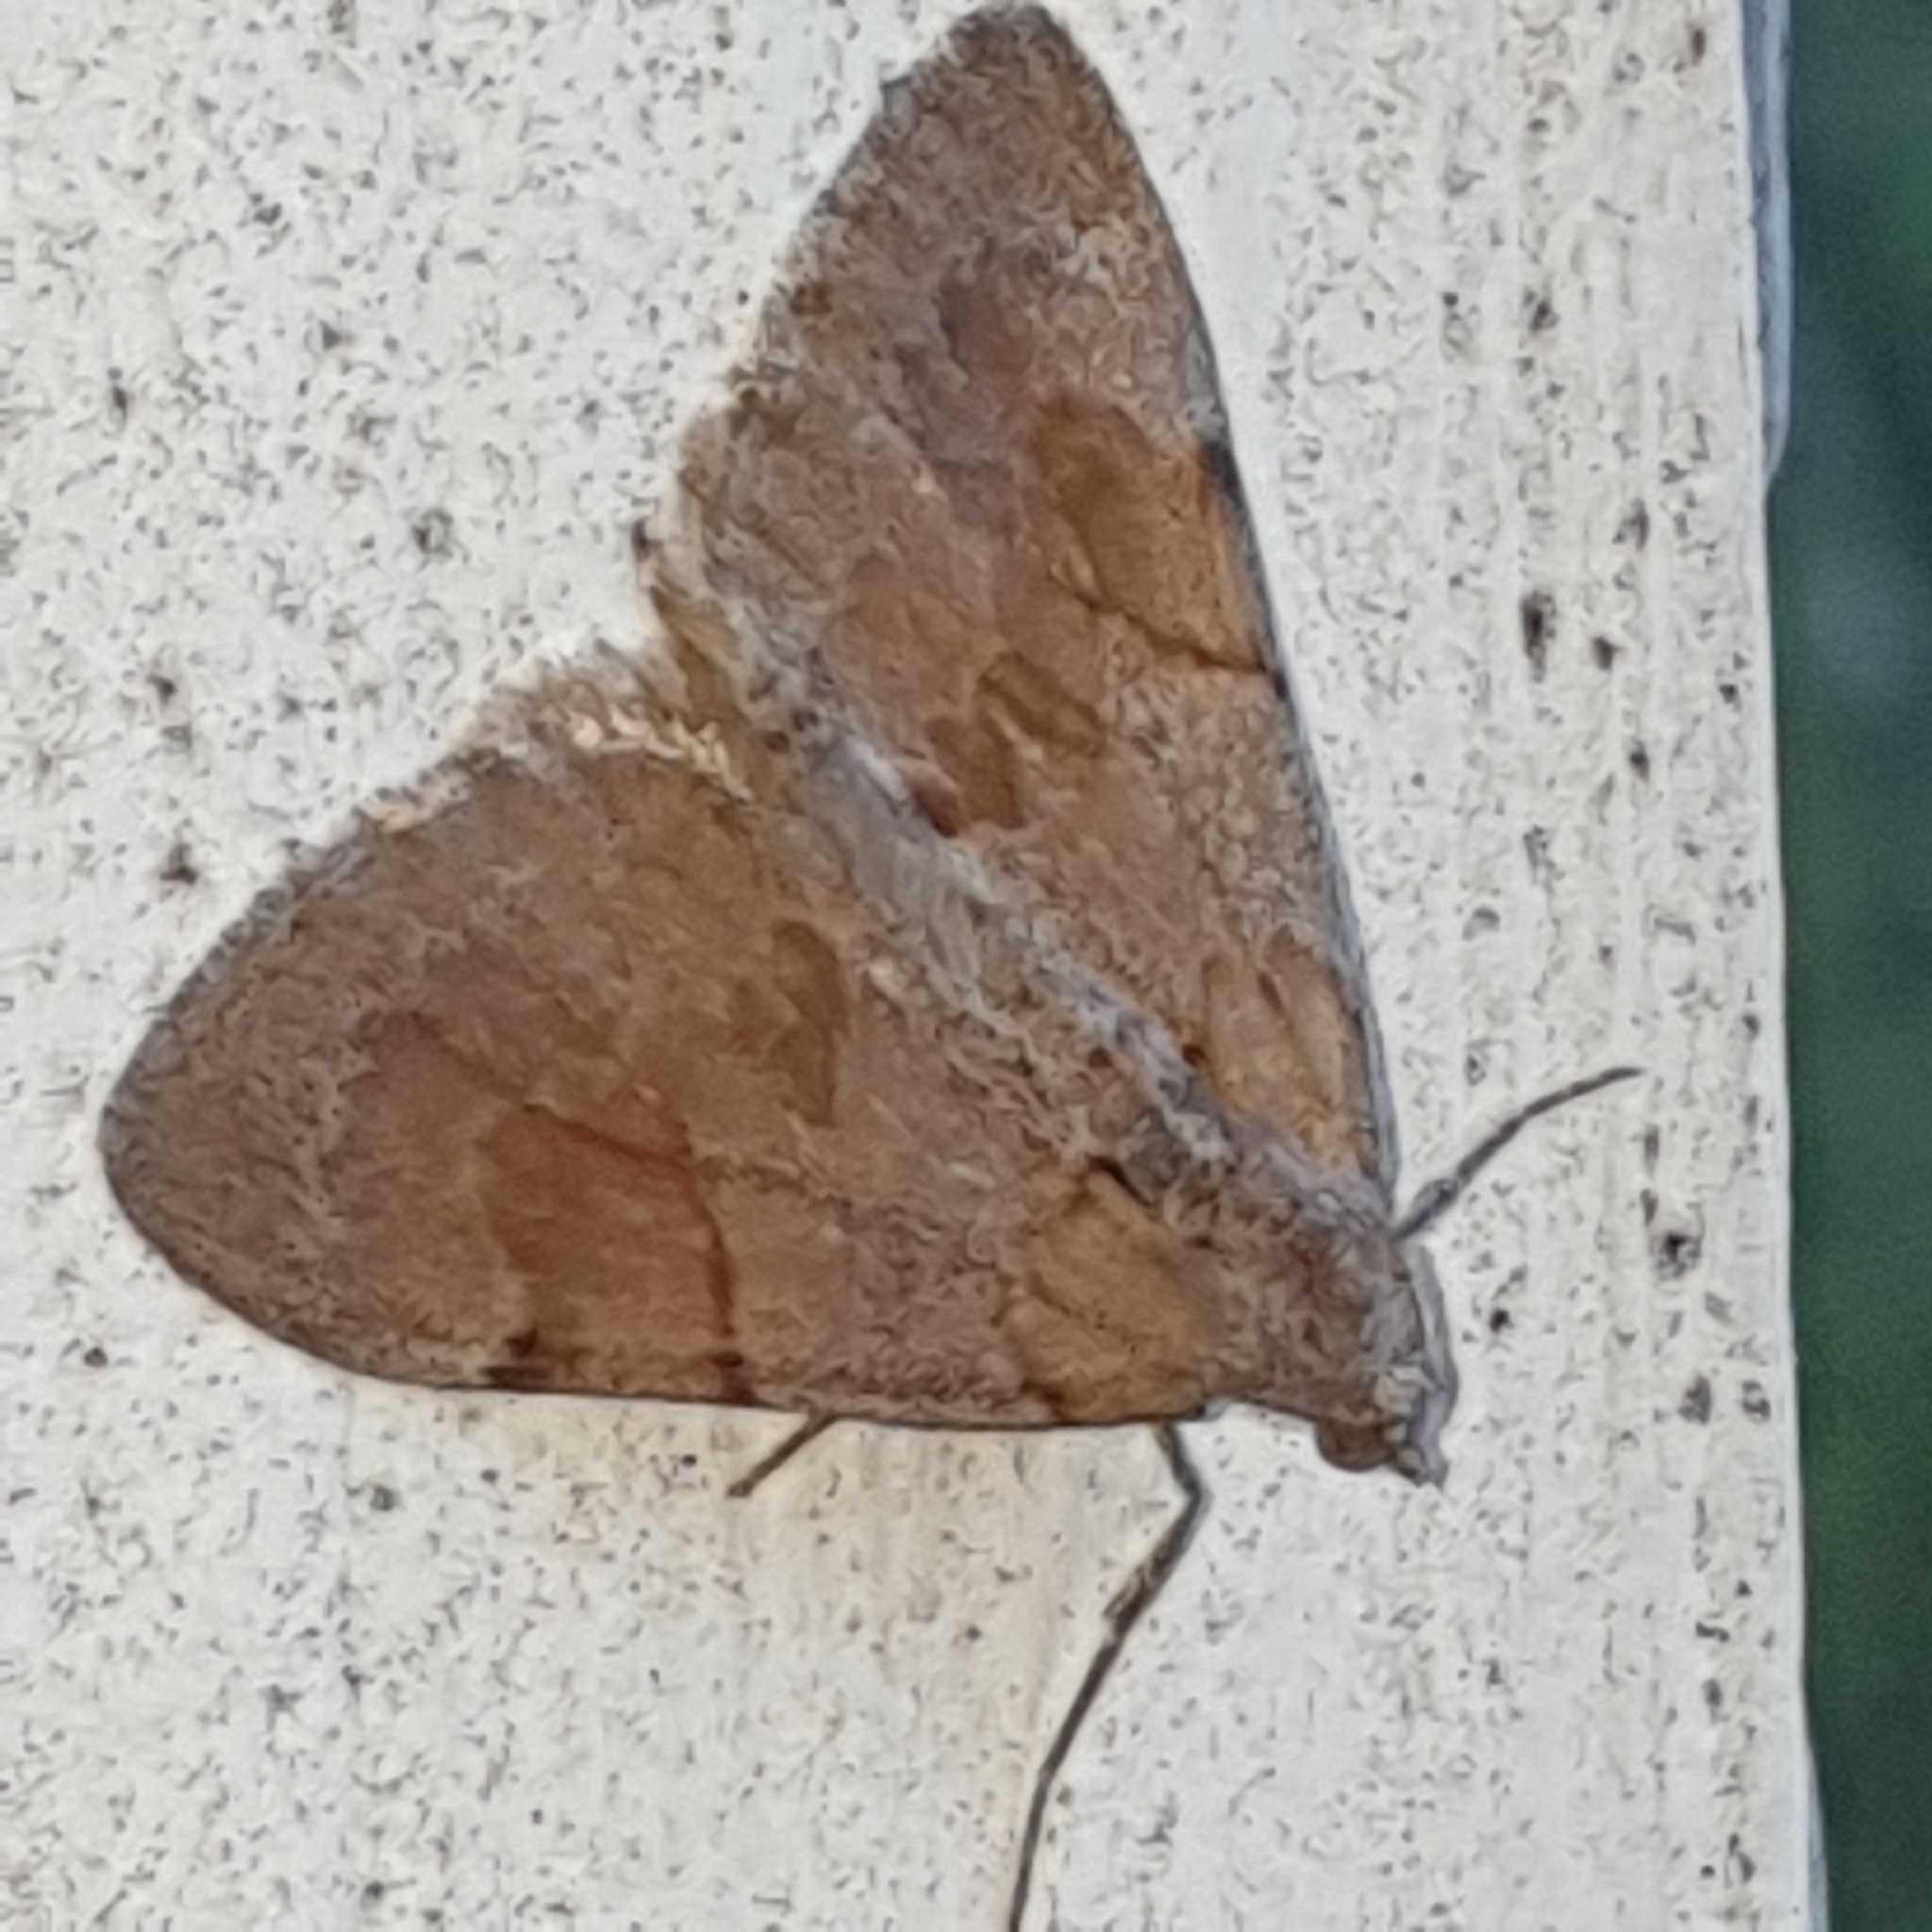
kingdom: Animalia
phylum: Arthropoda
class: Insecta
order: Lepidoptera
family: Geometridae
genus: Thera
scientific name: Thera obeliscata
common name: Grey pine carpet
